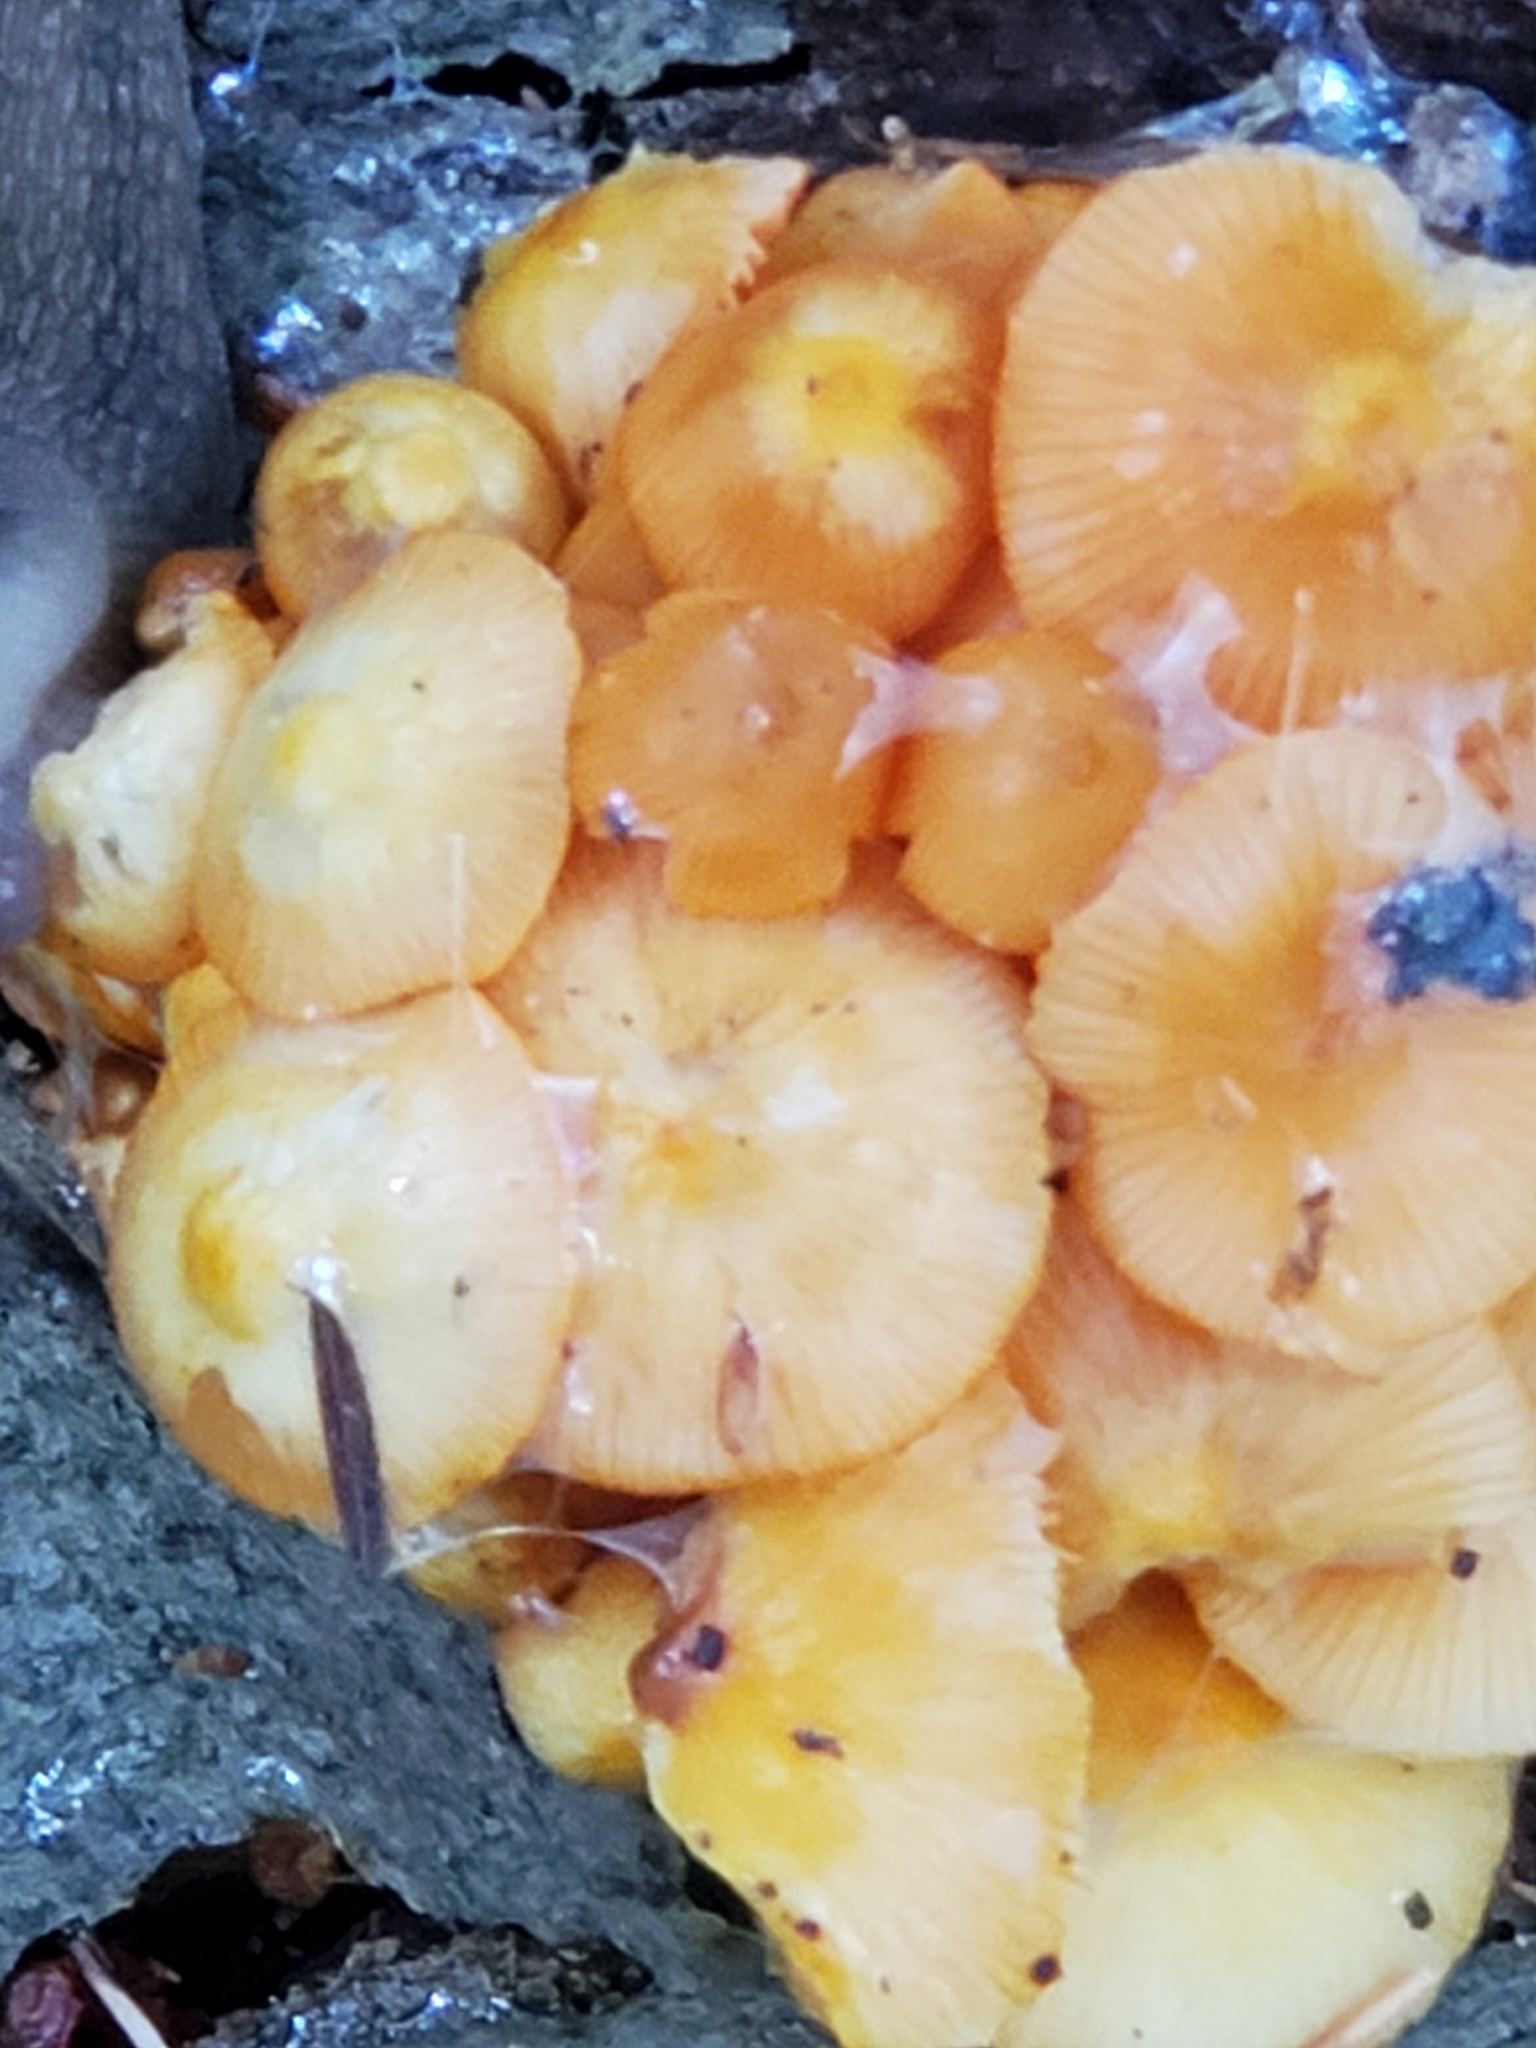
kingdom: Fungi
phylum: Basidiomycota
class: Agaricomycetes
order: Agaricales
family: Mycenaceae
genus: Mycena
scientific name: Mycena leaiana
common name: Orange mycena
